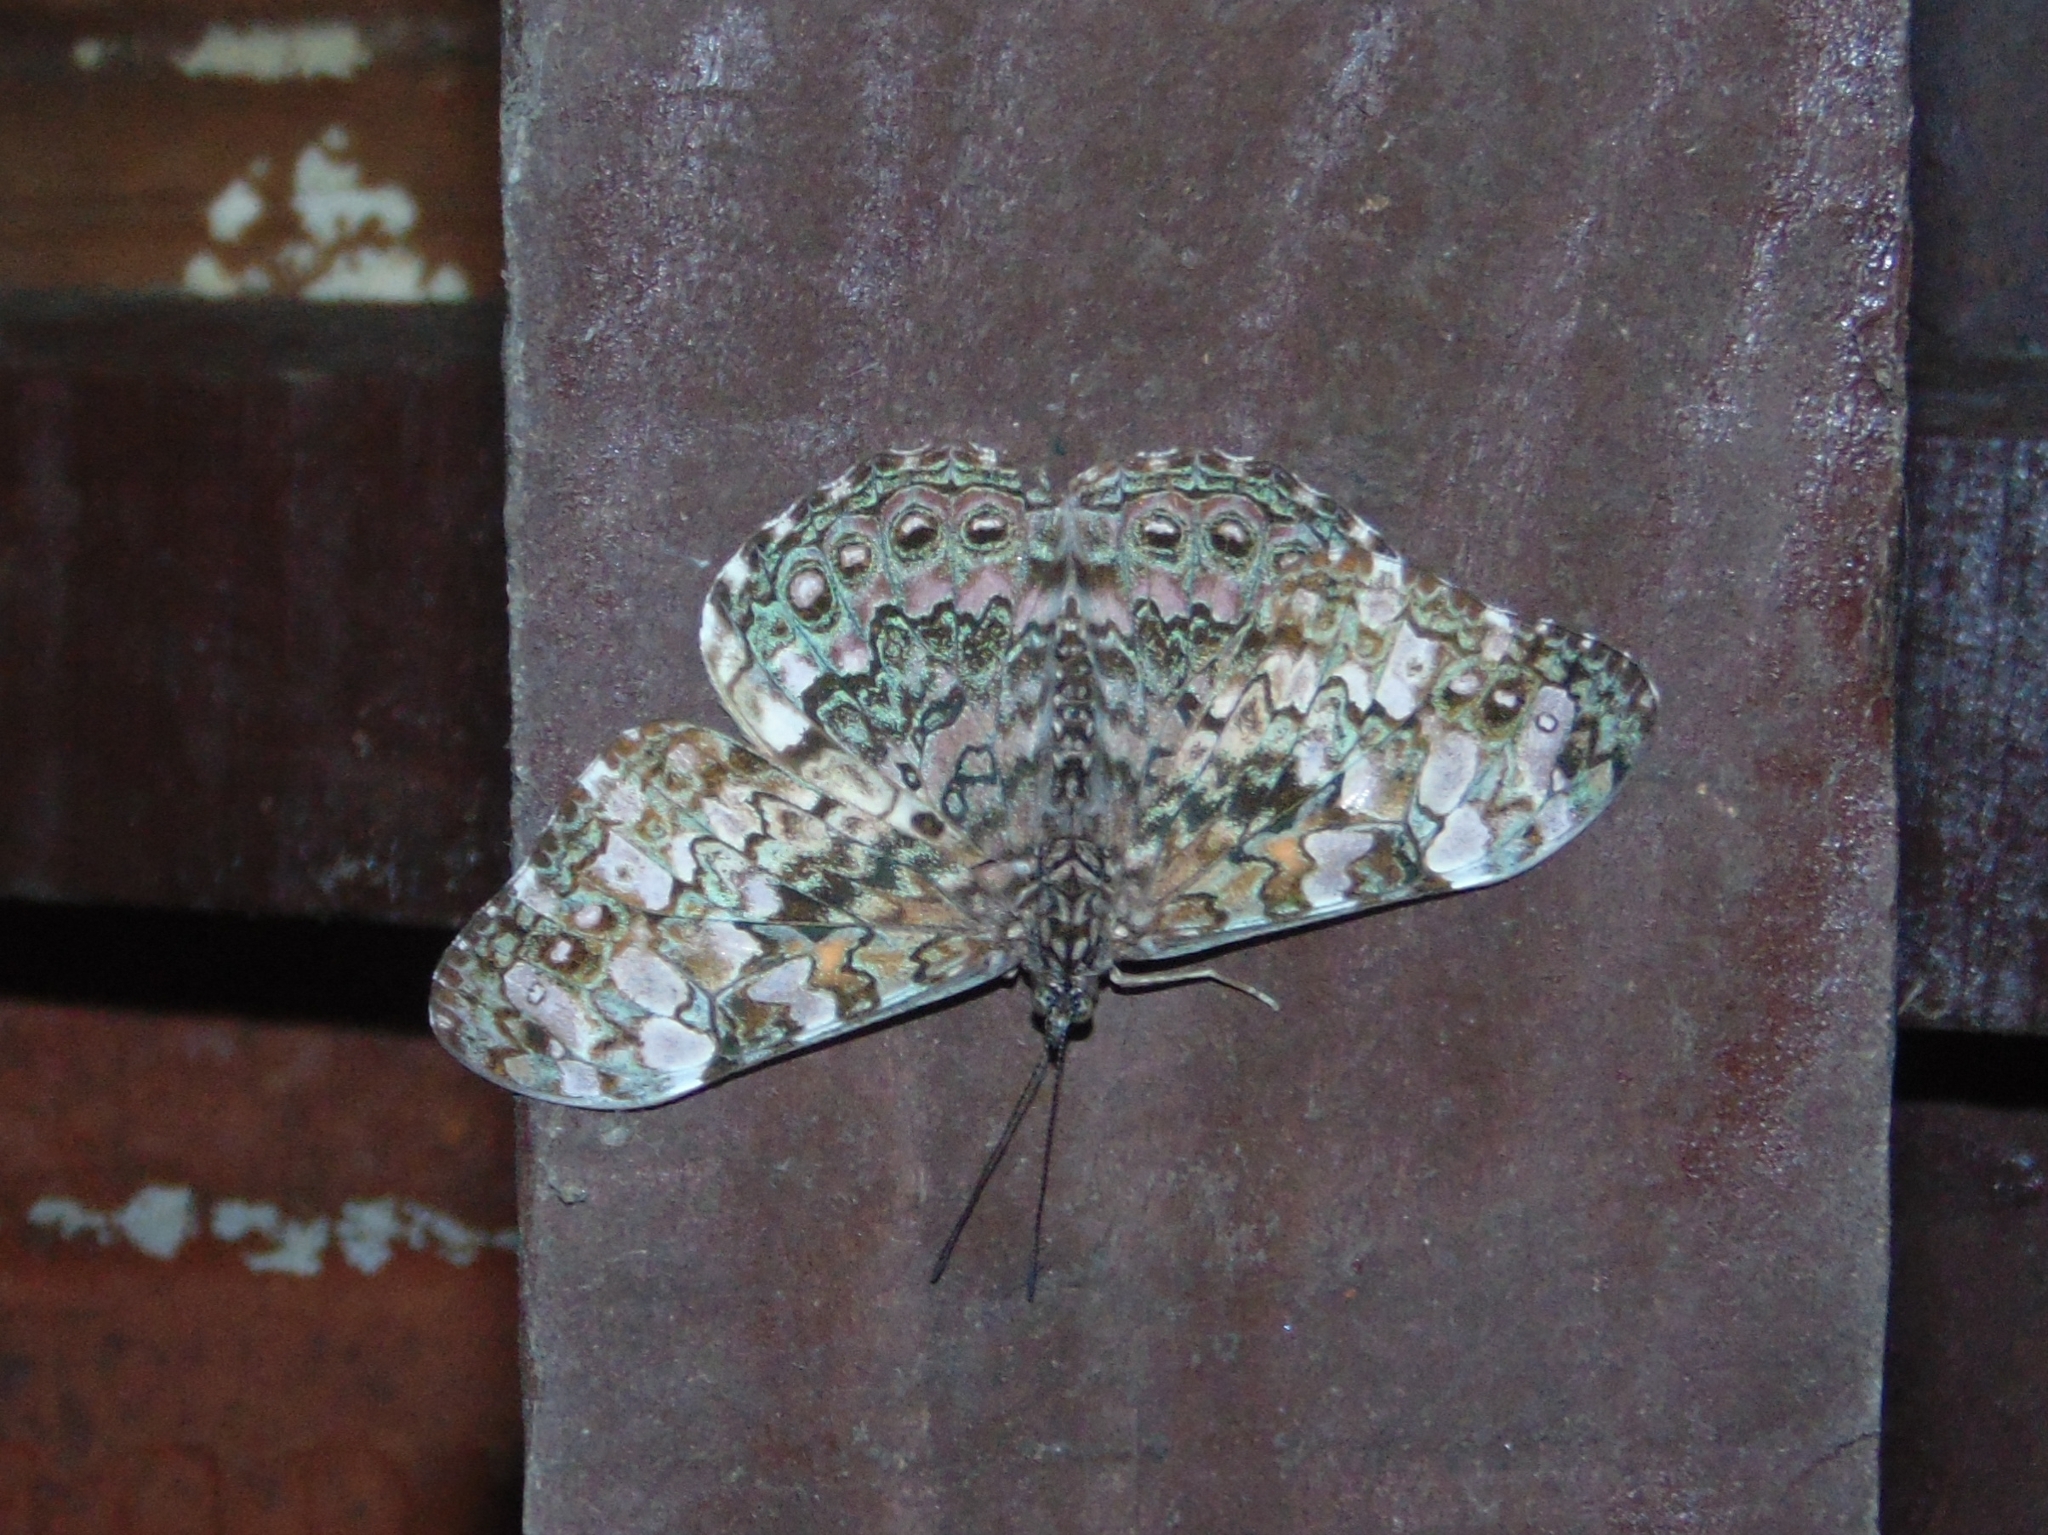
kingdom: Animalia
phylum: Arthropoda
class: Insecta
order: Lepidoptera
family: Nymphalidae
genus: Hamadryas
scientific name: Hamadryas epinome
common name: Epinome cracker
